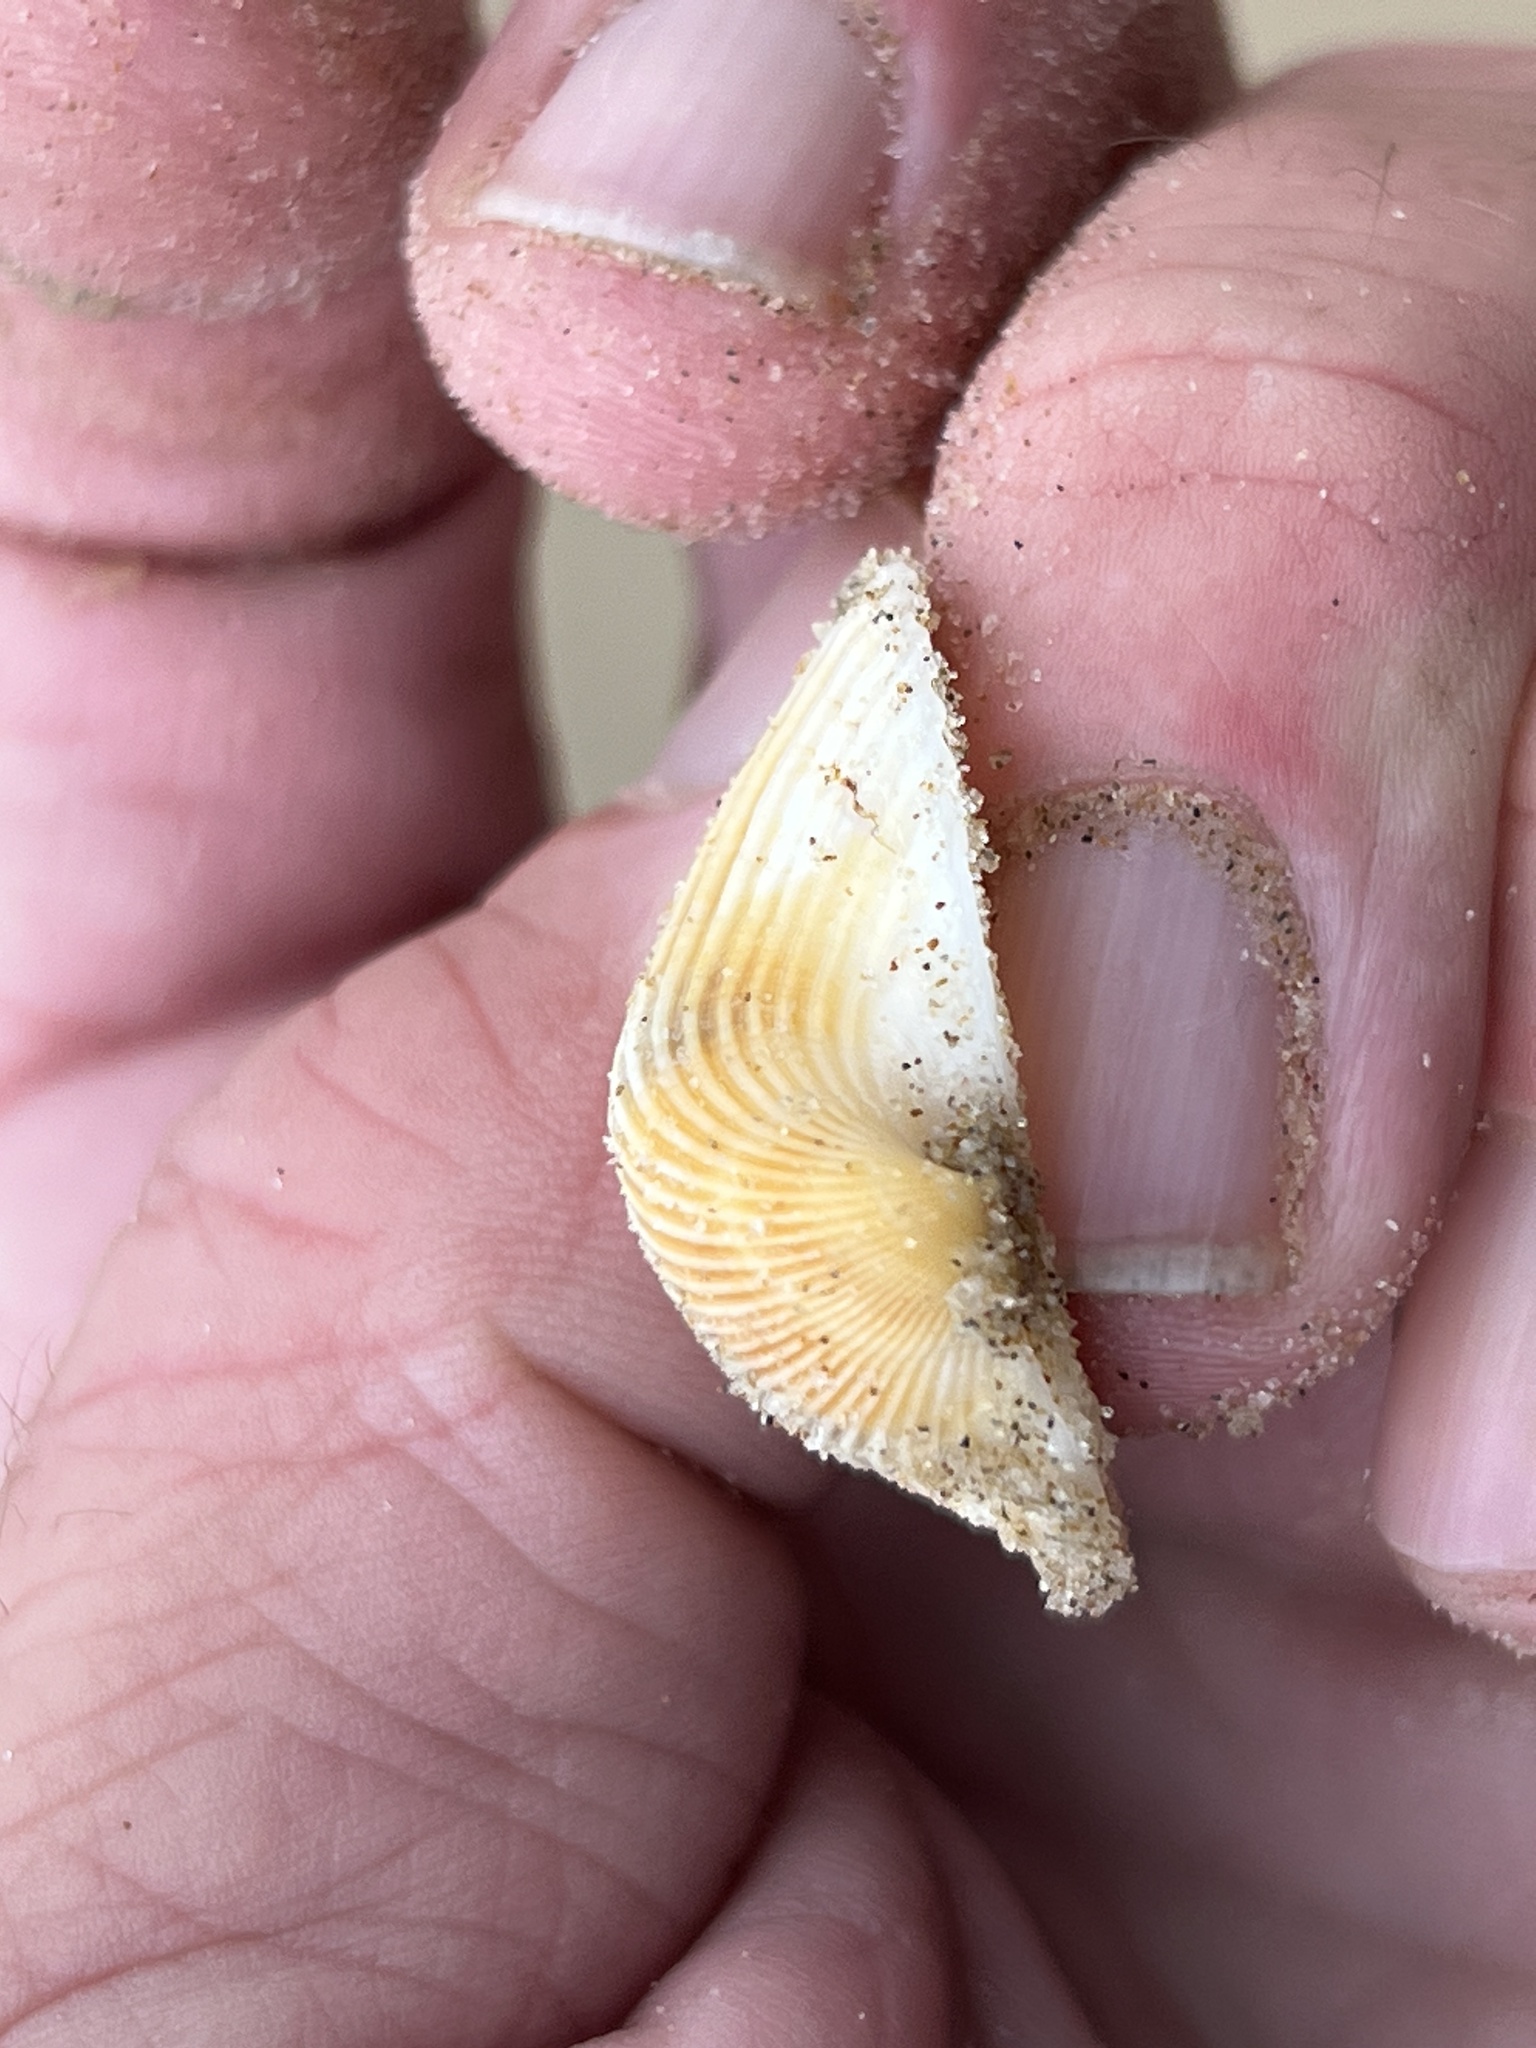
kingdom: Animalia
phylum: Mollusca
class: Bivalvia
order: Arcida
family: Noetiidae
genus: Noetia
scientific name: Noetia ponderosa
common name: Ponderous ark
